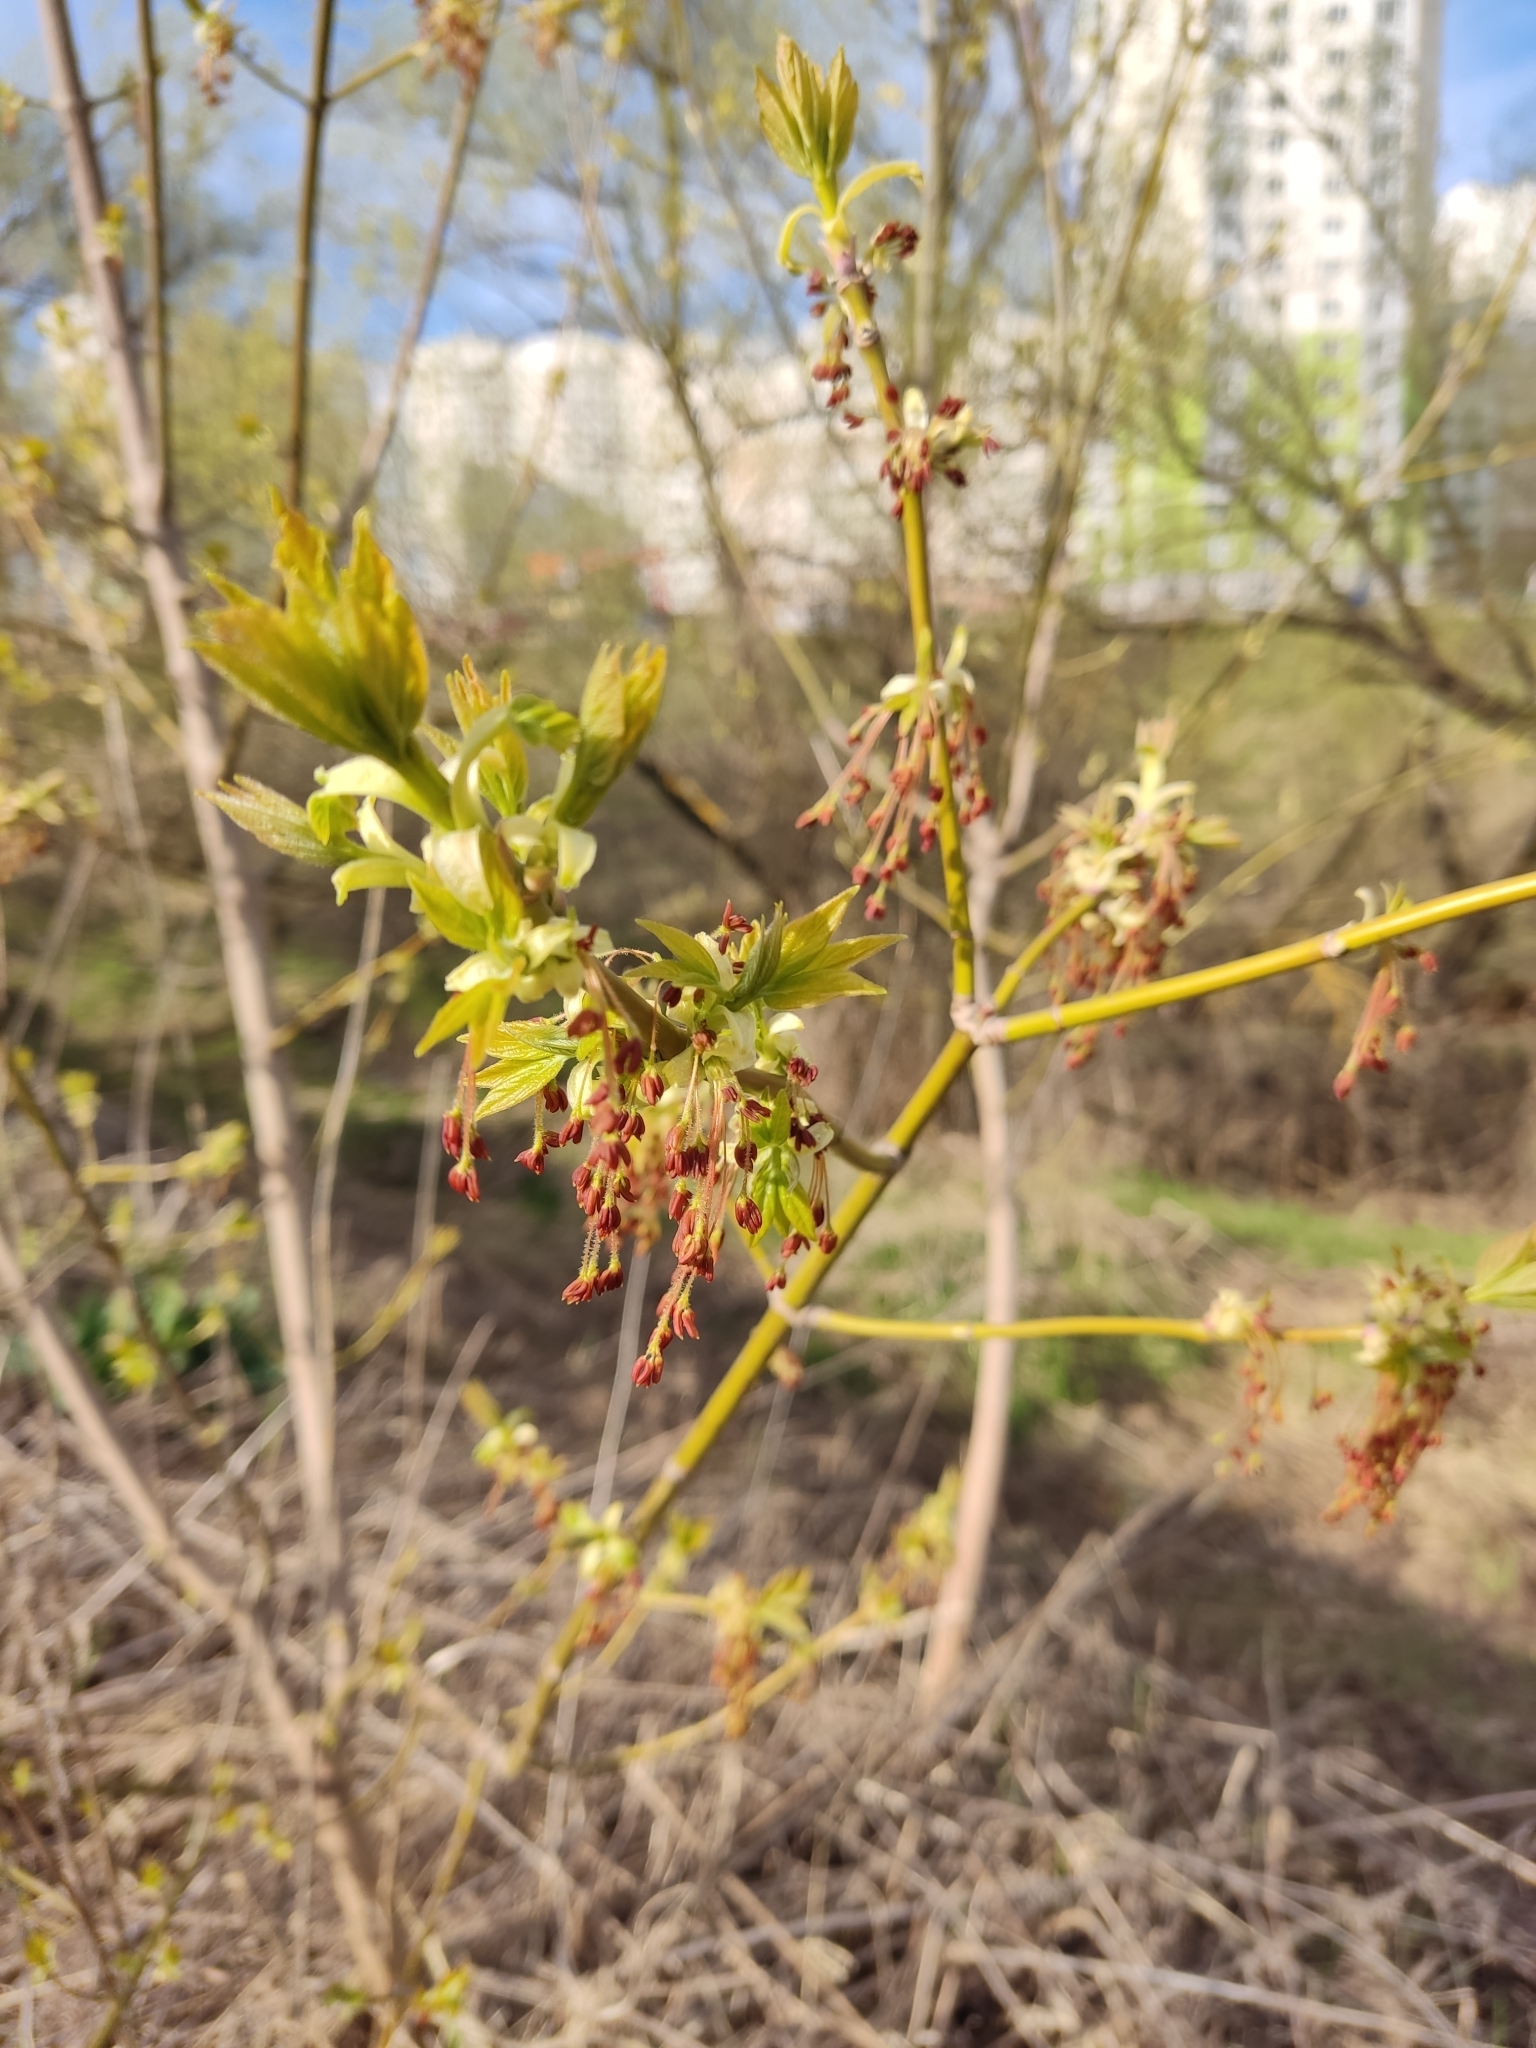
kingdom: Plantae
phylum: Tracheophyta
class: Magnoliopsida
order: Sapindales
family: Sapindaceae
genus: Acer
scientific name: Acer negundo
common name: Ashleaf maple
